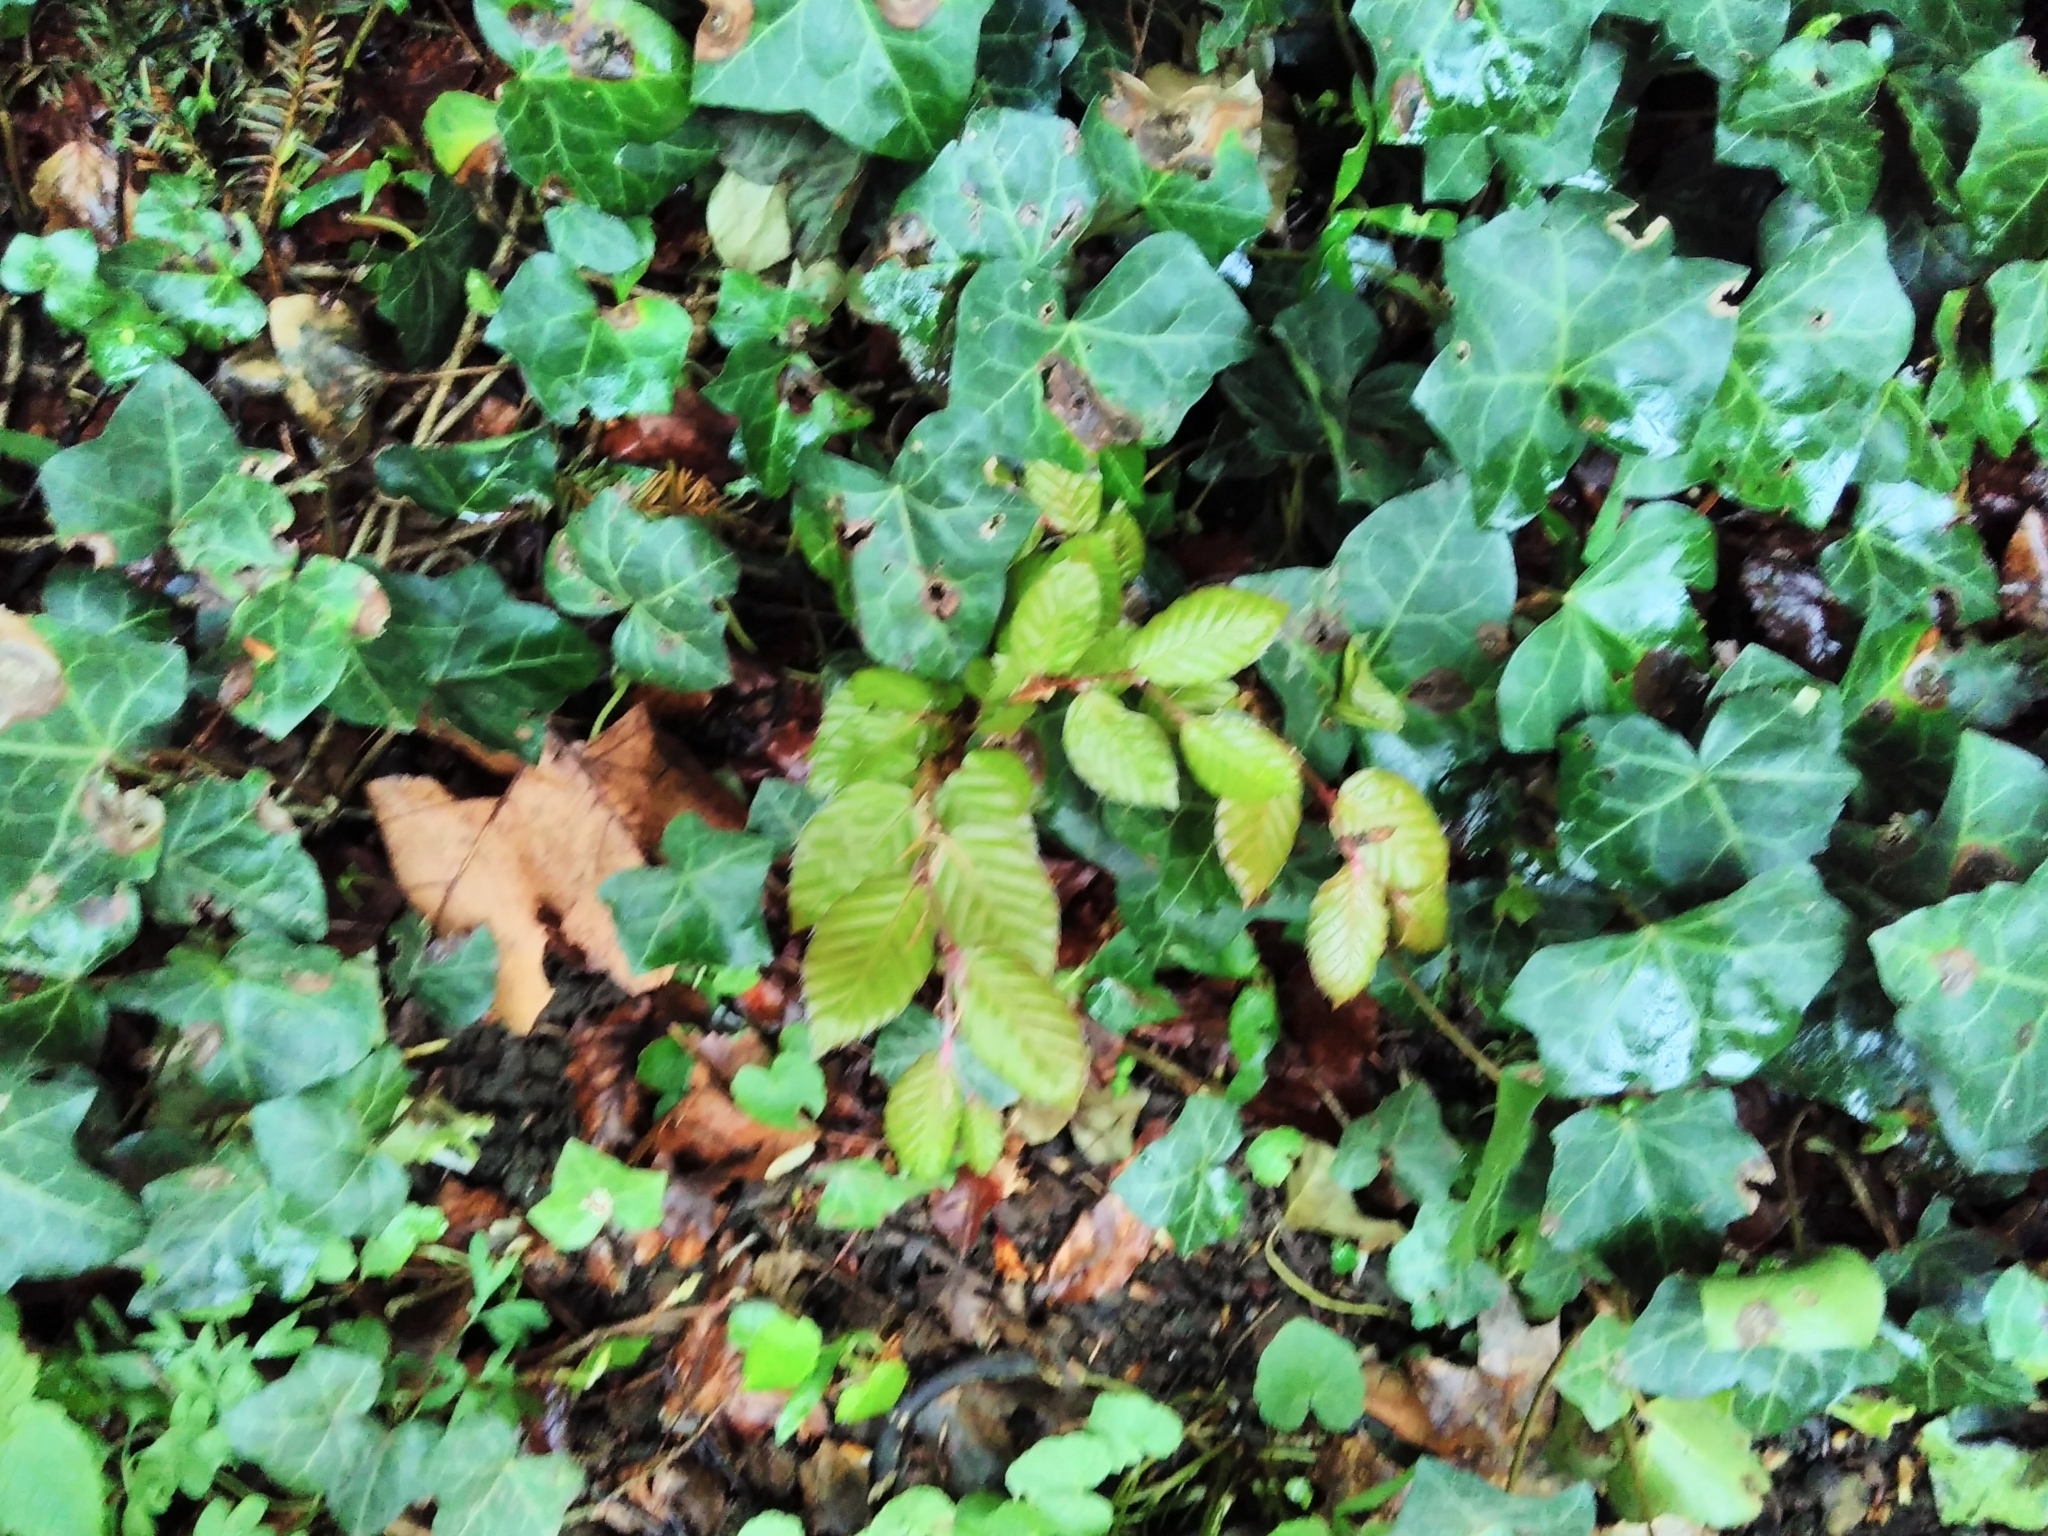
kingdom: Plantae
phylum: Tracheophyta
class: Magnoliopsida
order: Fagales
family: Fagaceae
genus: Fagus
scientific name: Fagus sylvatica
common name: Beech
